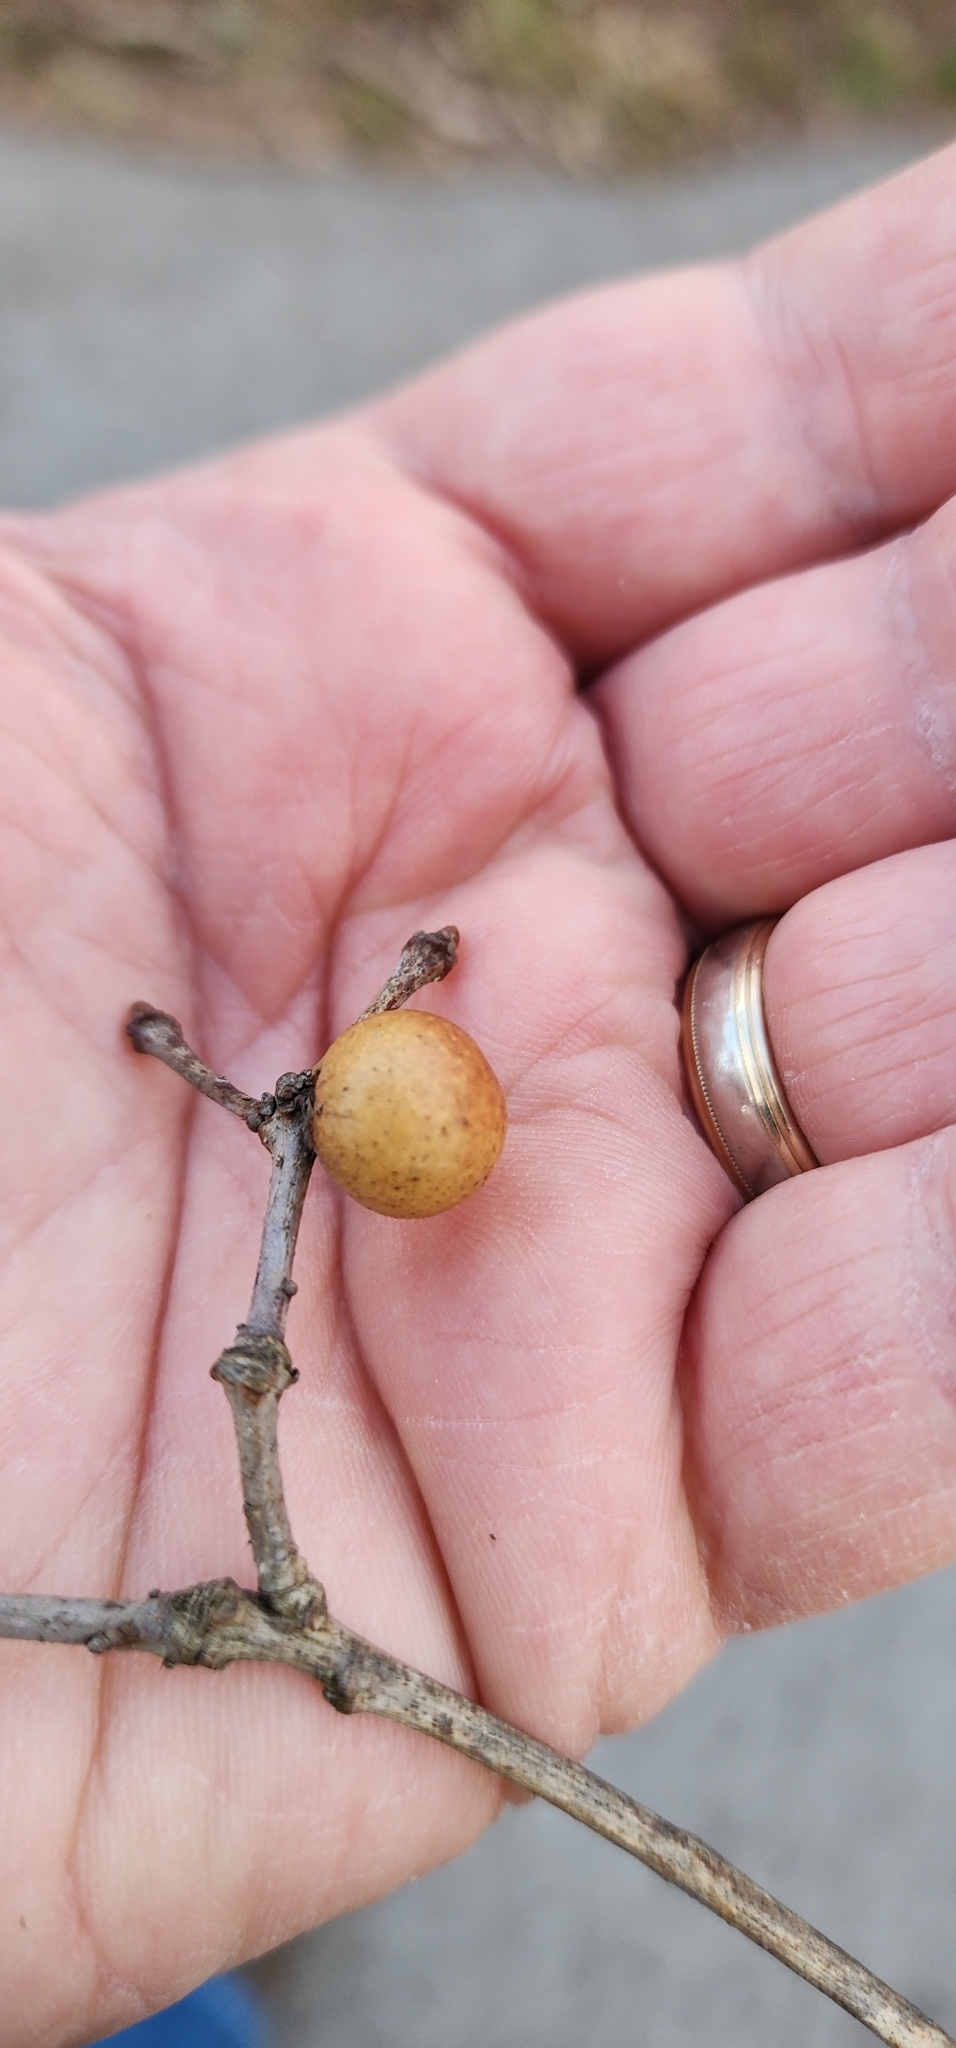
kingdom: Animalia
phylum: Arthropoda
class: Insecta
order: Hymenoptera
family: Cynipidae
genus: Disholcaspis
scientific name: Disholcaspis quercusglobulus
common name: Round bullet gall wasp
